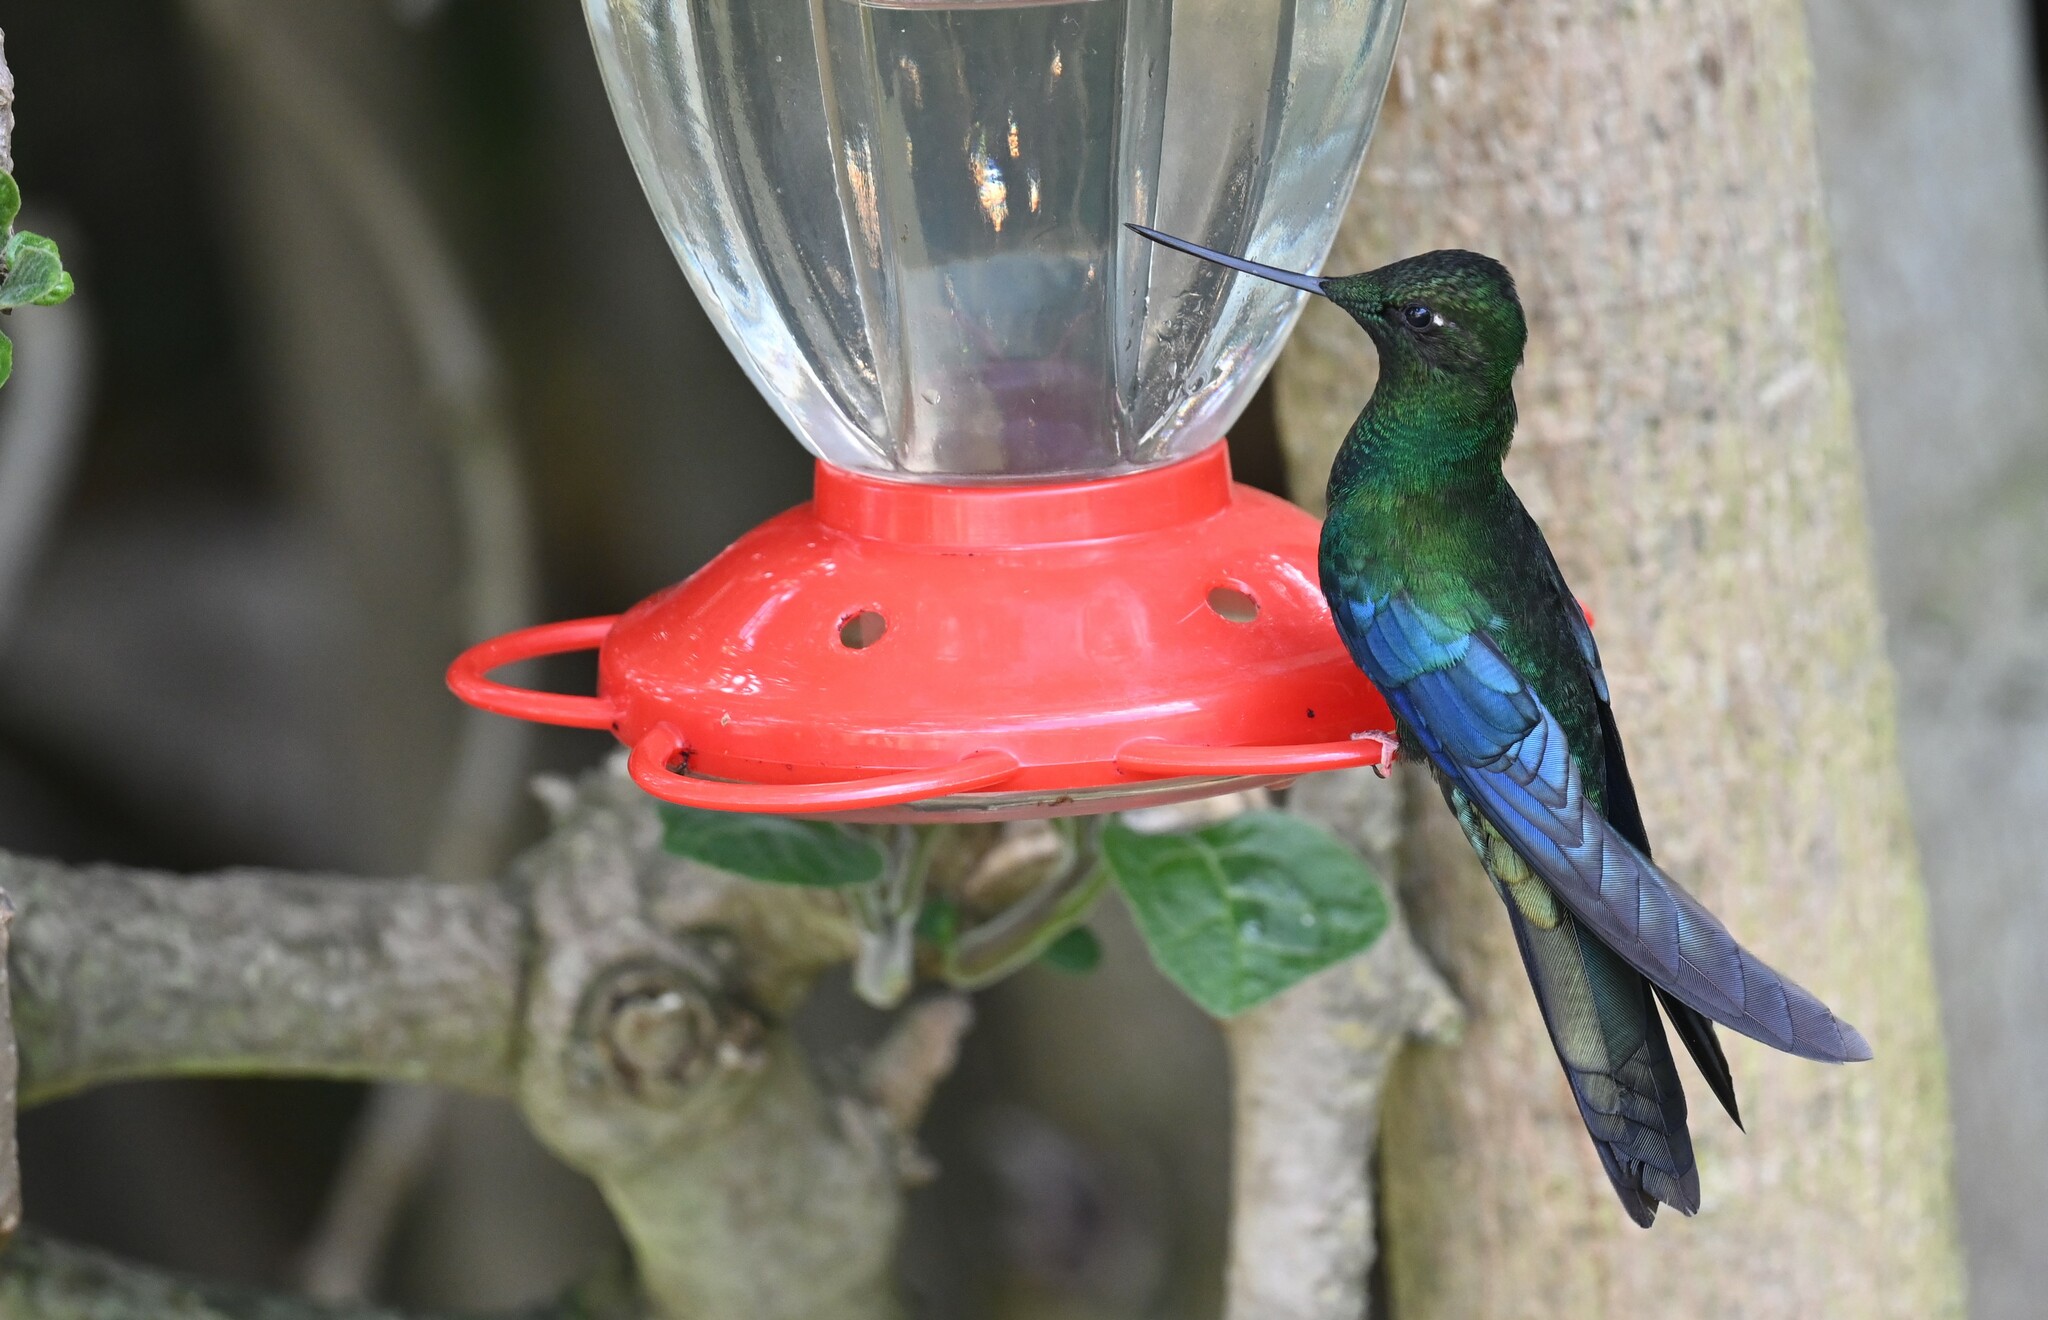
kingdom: Animalia
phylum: Chordata
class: Aves
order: Apodiformes
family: Trochilidae
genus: Pterophanes
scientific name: Pterophanes cyanopterus
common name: Great sapphirewing
